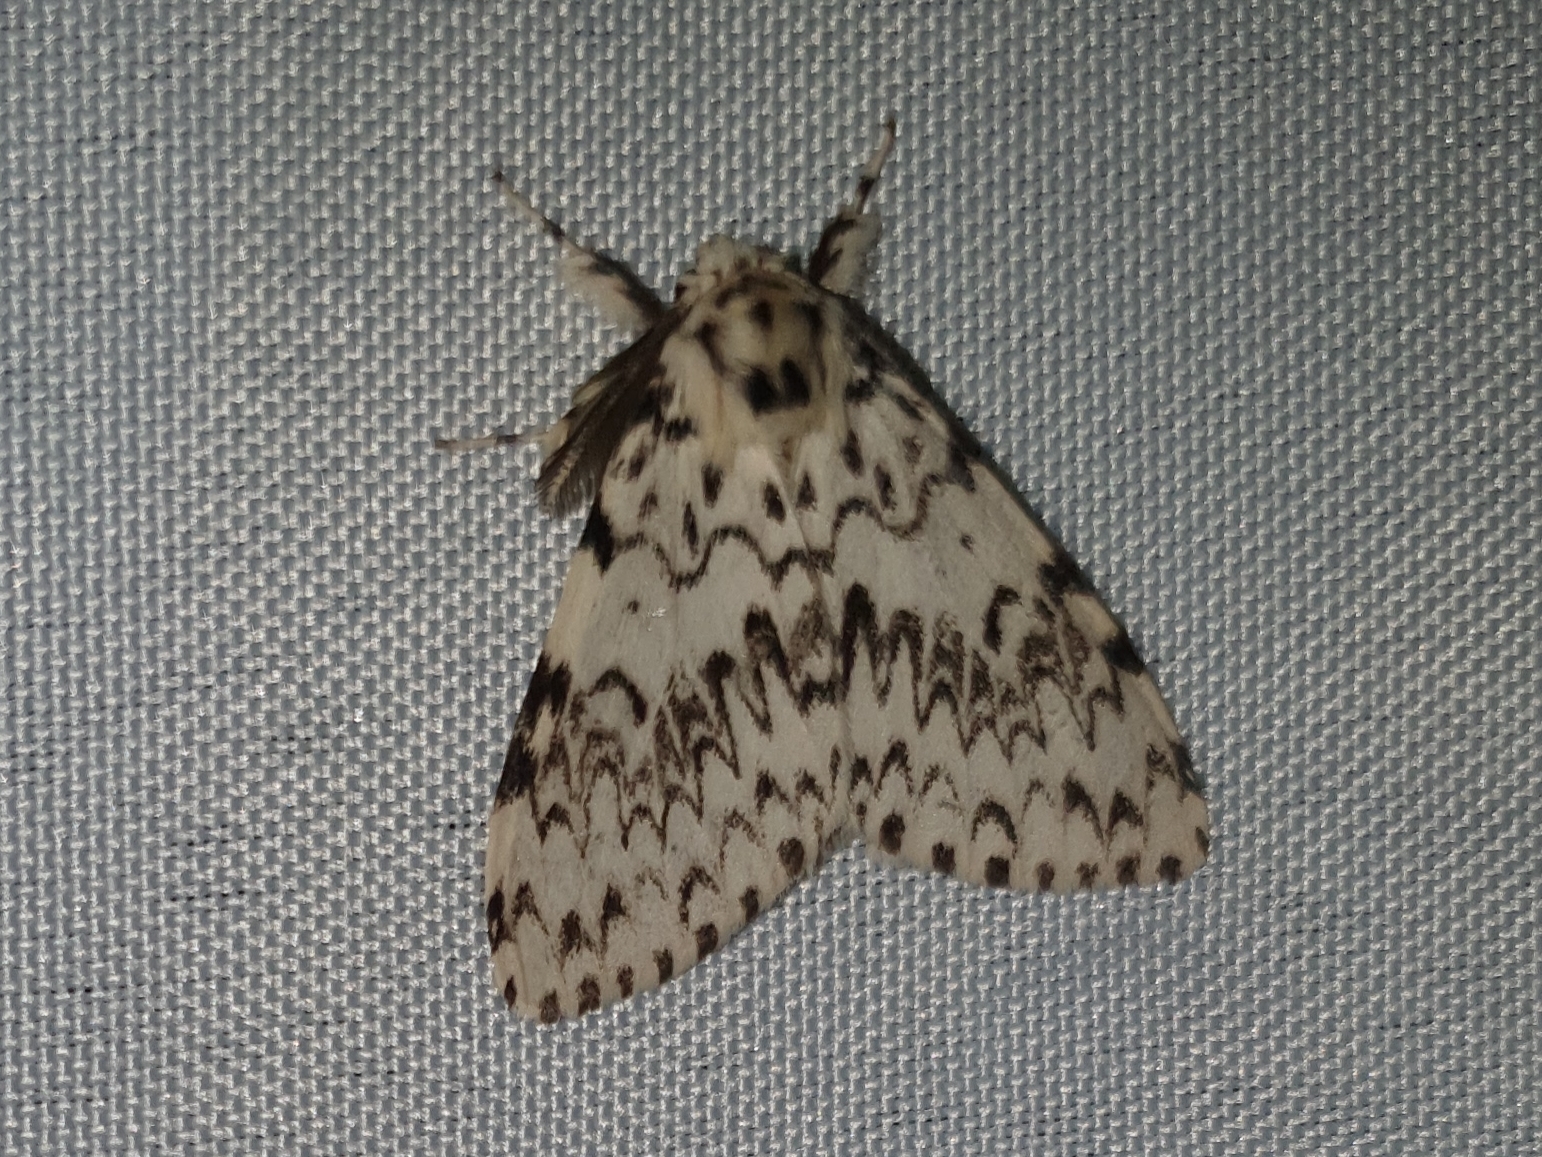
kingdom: Animalia
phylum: Arthropoda
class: Insecta
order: Lepidoptera
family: Erebidae
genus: Lymantria
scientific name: Lymantria monacha
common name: Black arches
